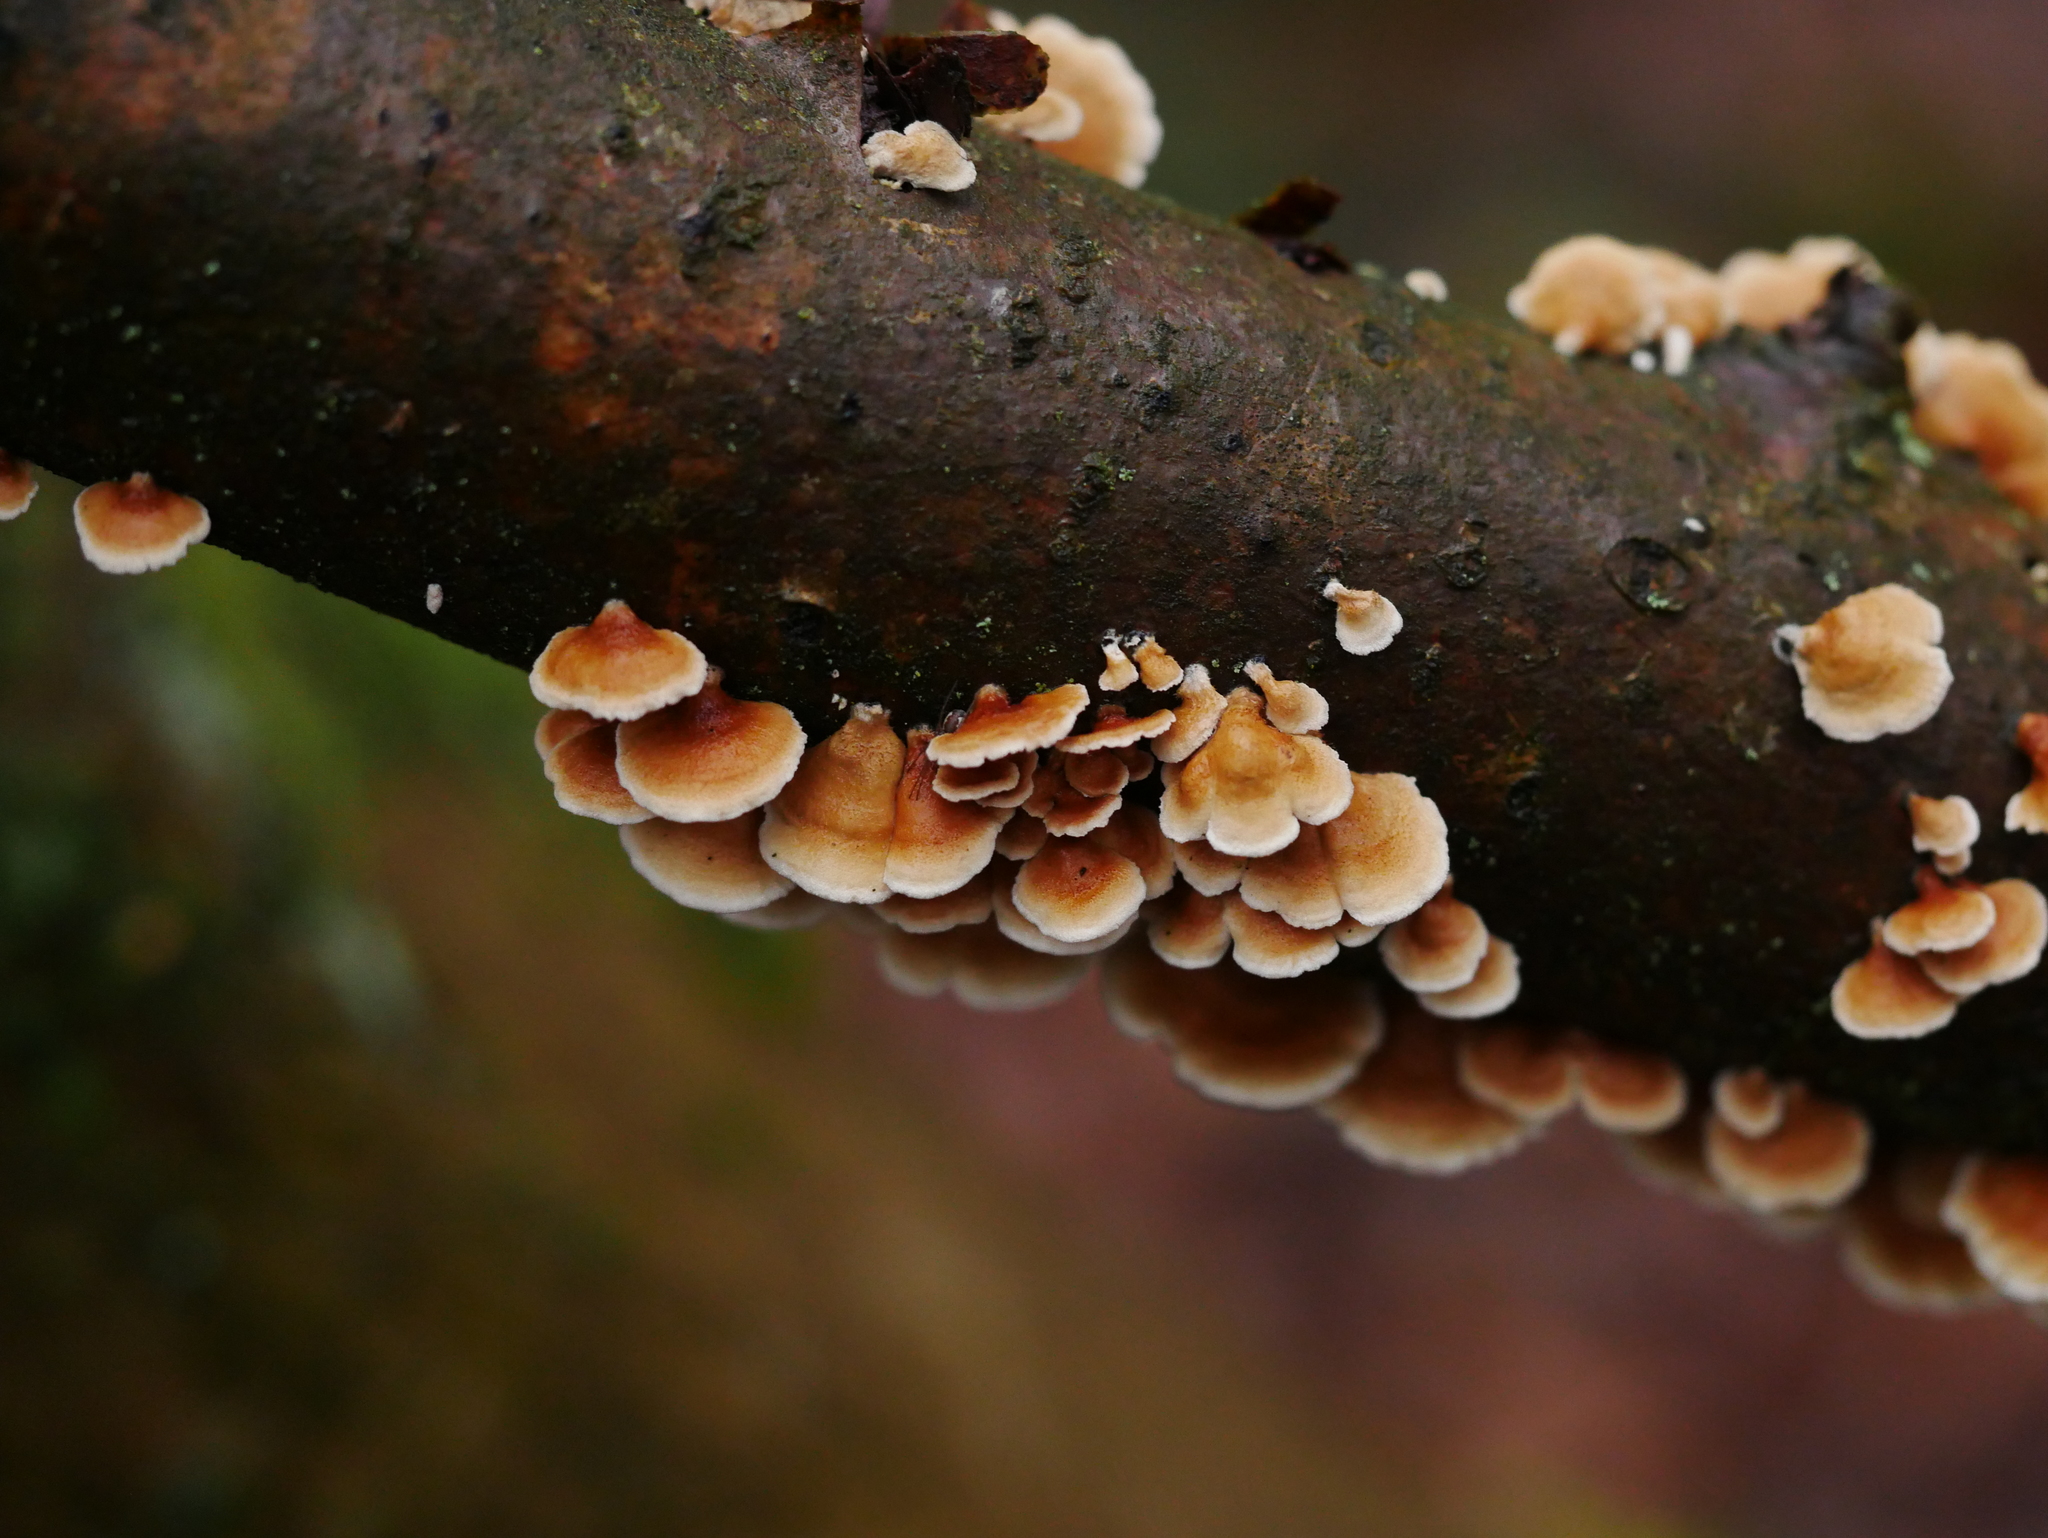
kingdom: Fungi
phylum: Basidiomycota
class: Agaricomycetes
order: Amylocorticiales
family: Amylocorticiaceae
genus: Plicaturopsis
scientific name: Plicaturopsis crispa
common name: Crimped gill
